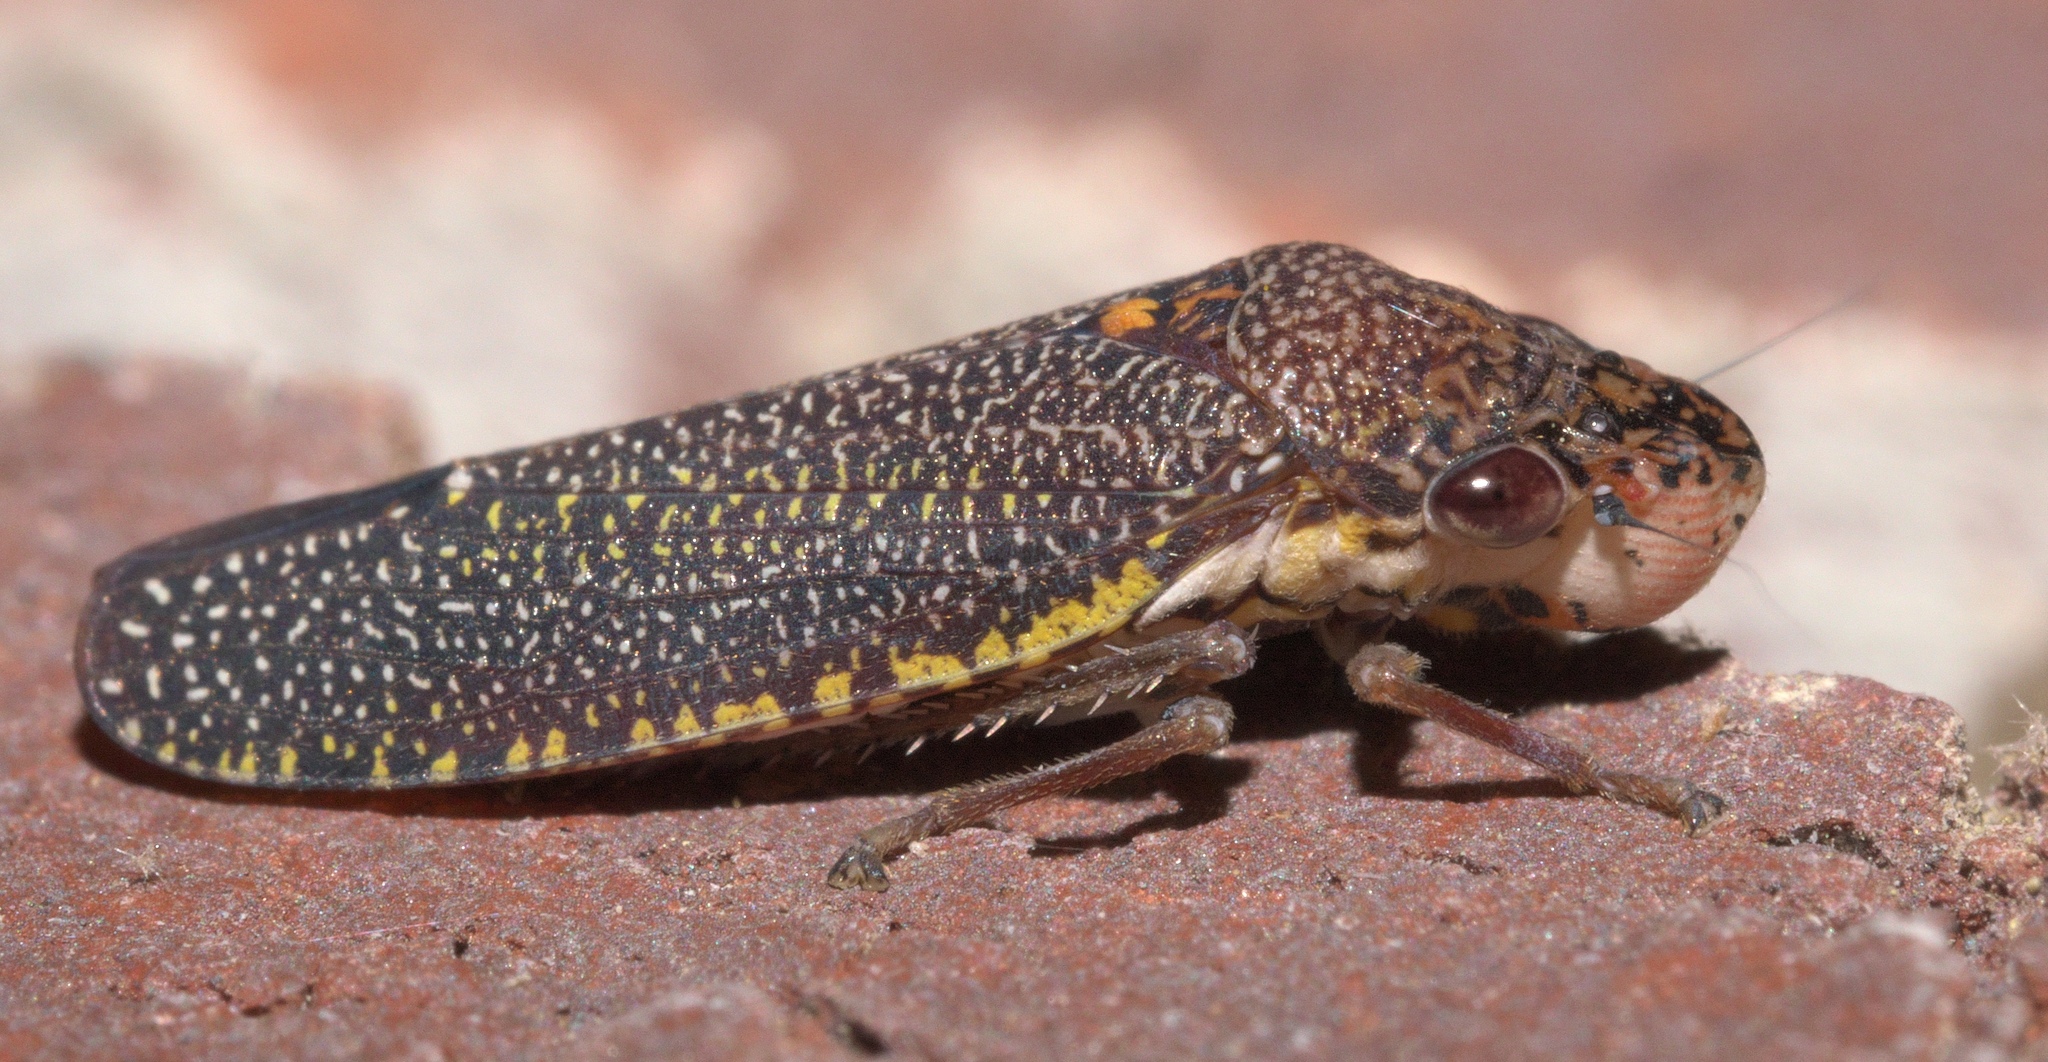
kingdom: Animalia
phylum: Arthropoda
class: Insecta
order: Hemiptera
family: Cicadellidae
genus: Paraulacizes
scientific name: Paraulacizes irrorata
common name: Speckled sharpshooter
